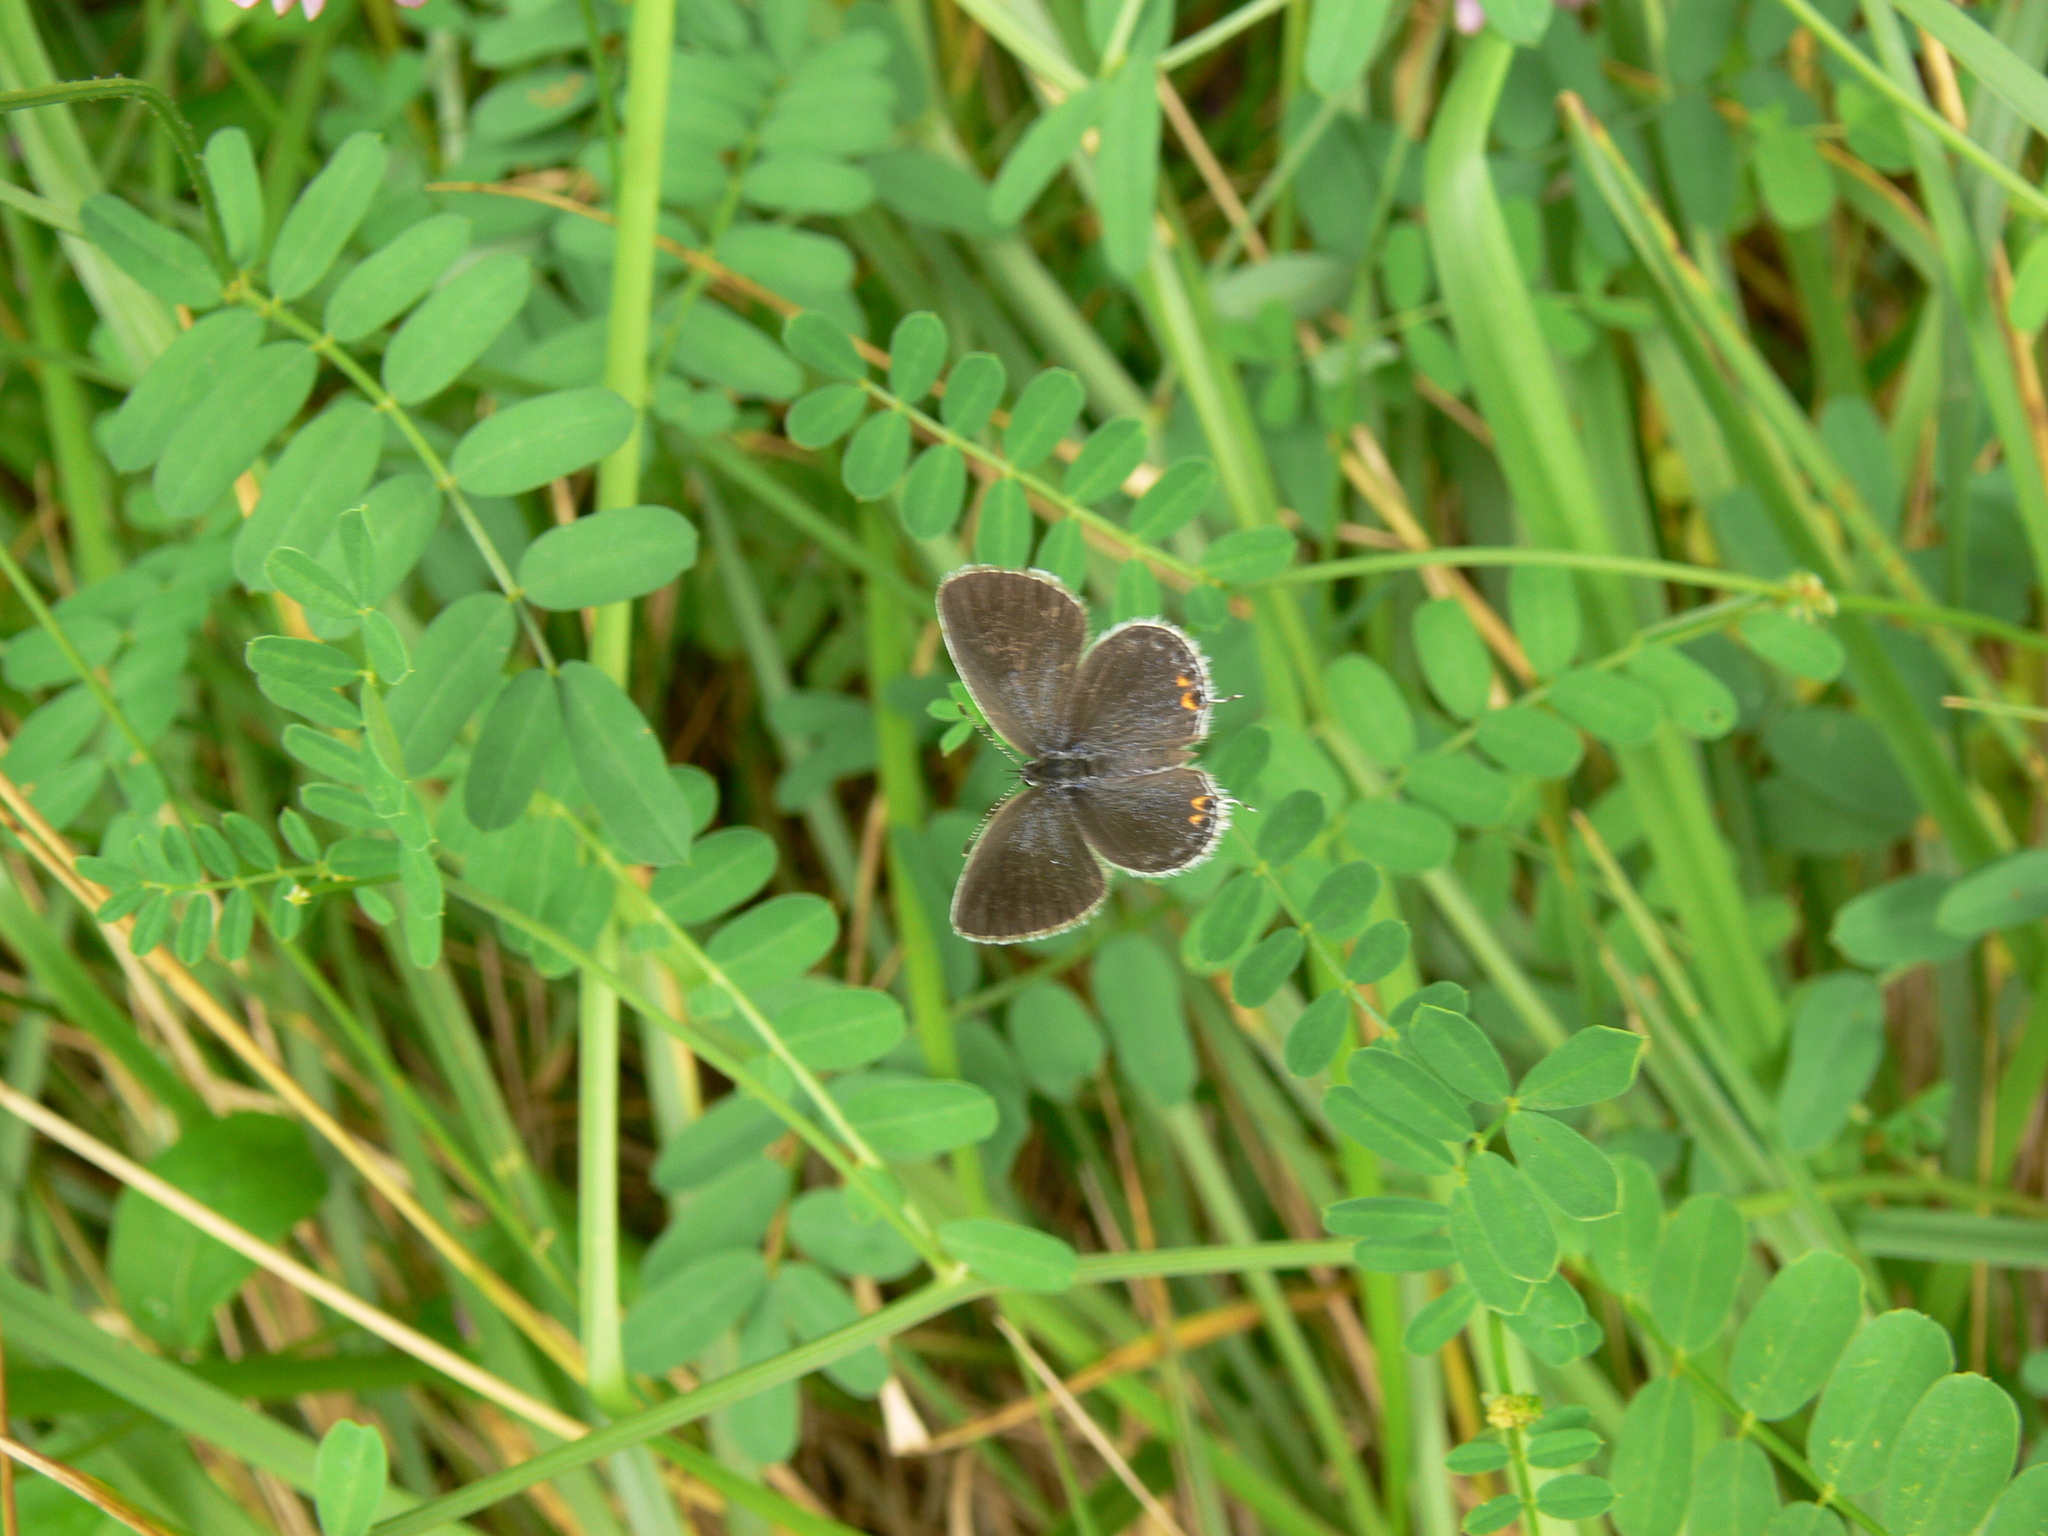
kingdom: Animalia
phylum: Arthropoda
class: Insecta
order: Lepidoptera
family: Lycaenidae
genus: Elkalyce
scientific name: Elkalyce comyntas
